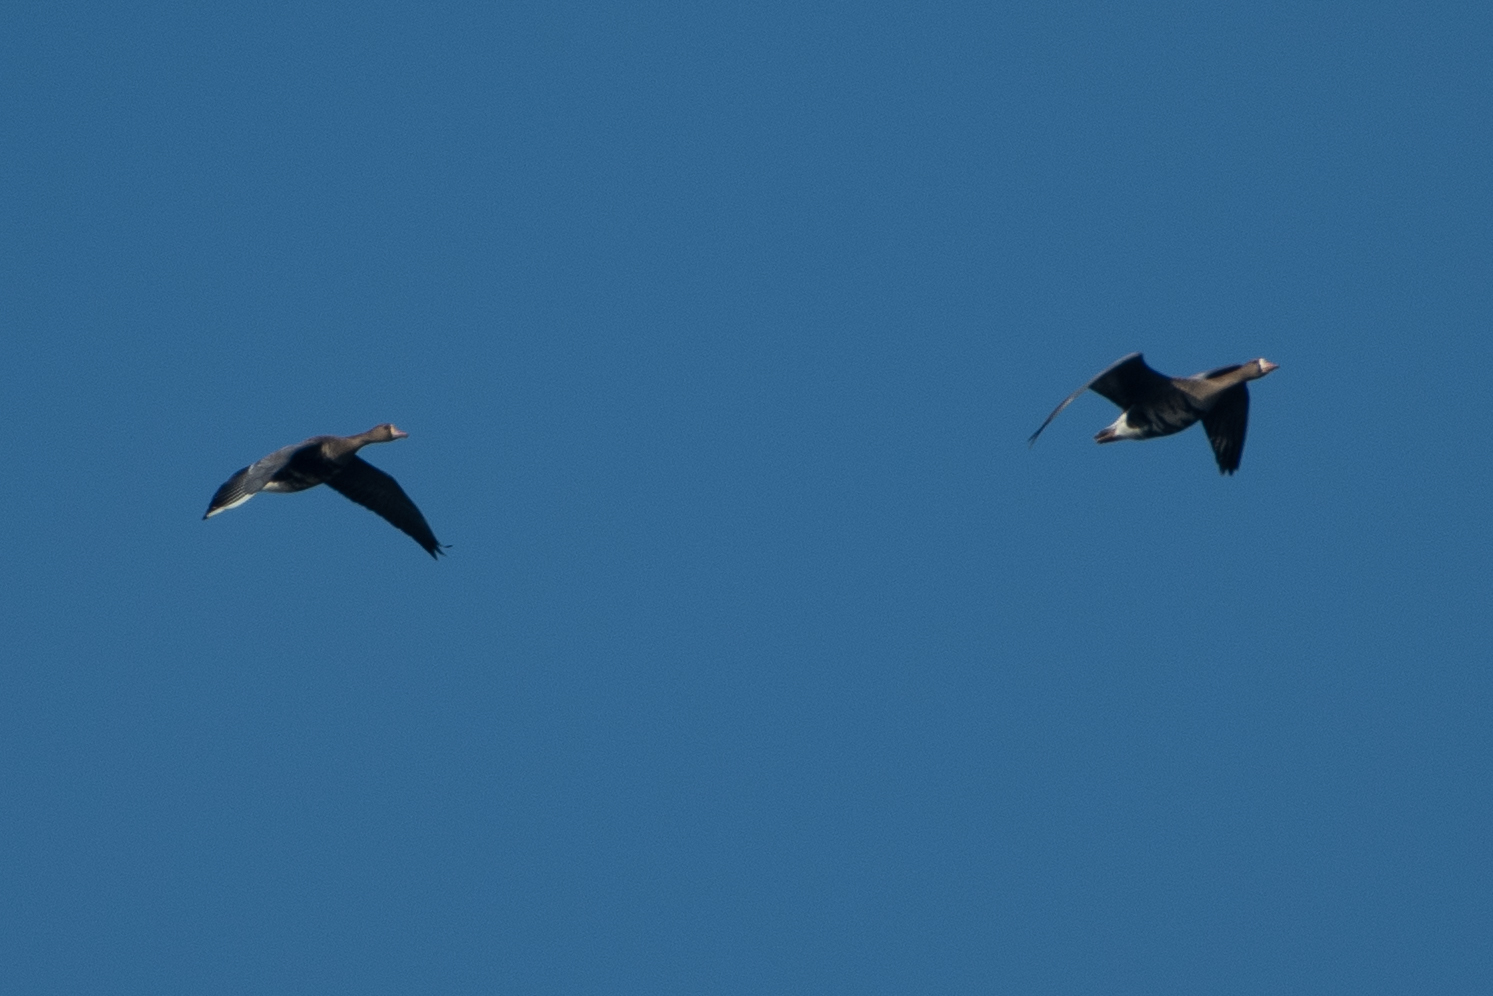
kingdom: Animalia
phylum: Chordata
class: Aves
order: Anseriformes
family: Anatidae
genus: Anser
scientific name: Anser albifrons
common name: Greater white-fronted goose
